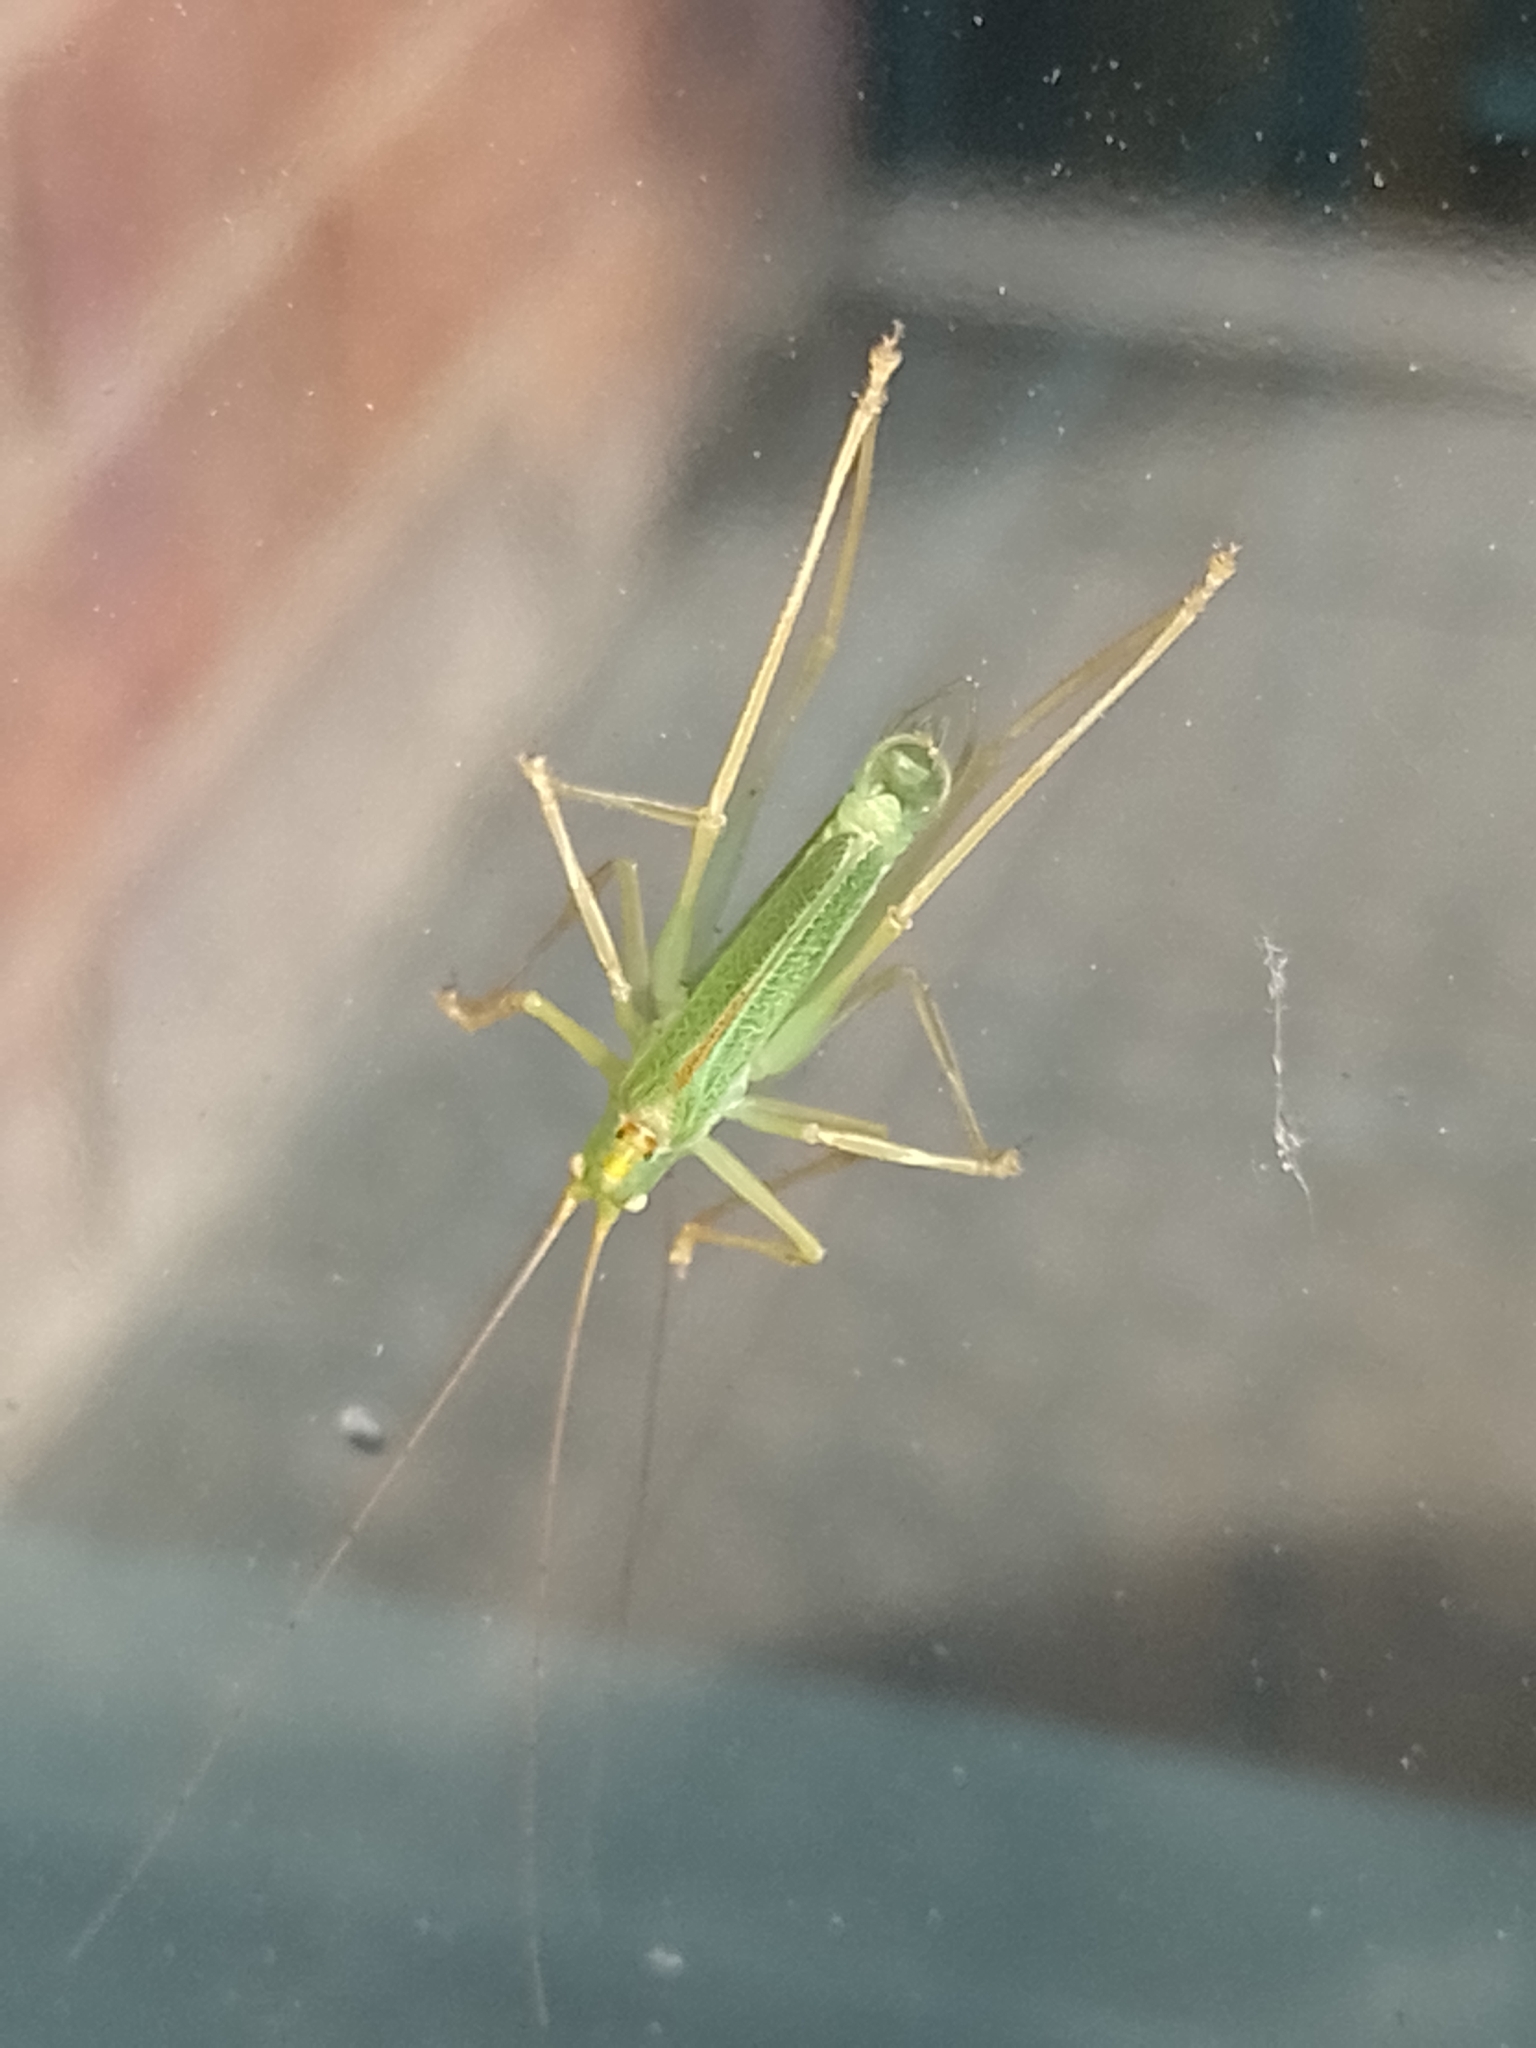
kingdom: Animalia
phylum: Arthropoda
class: Insecta
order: Orthoptera
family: Tettigoniidae
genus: Meconema
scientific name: Meconema thalassinum
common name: Oak bush-cricket
